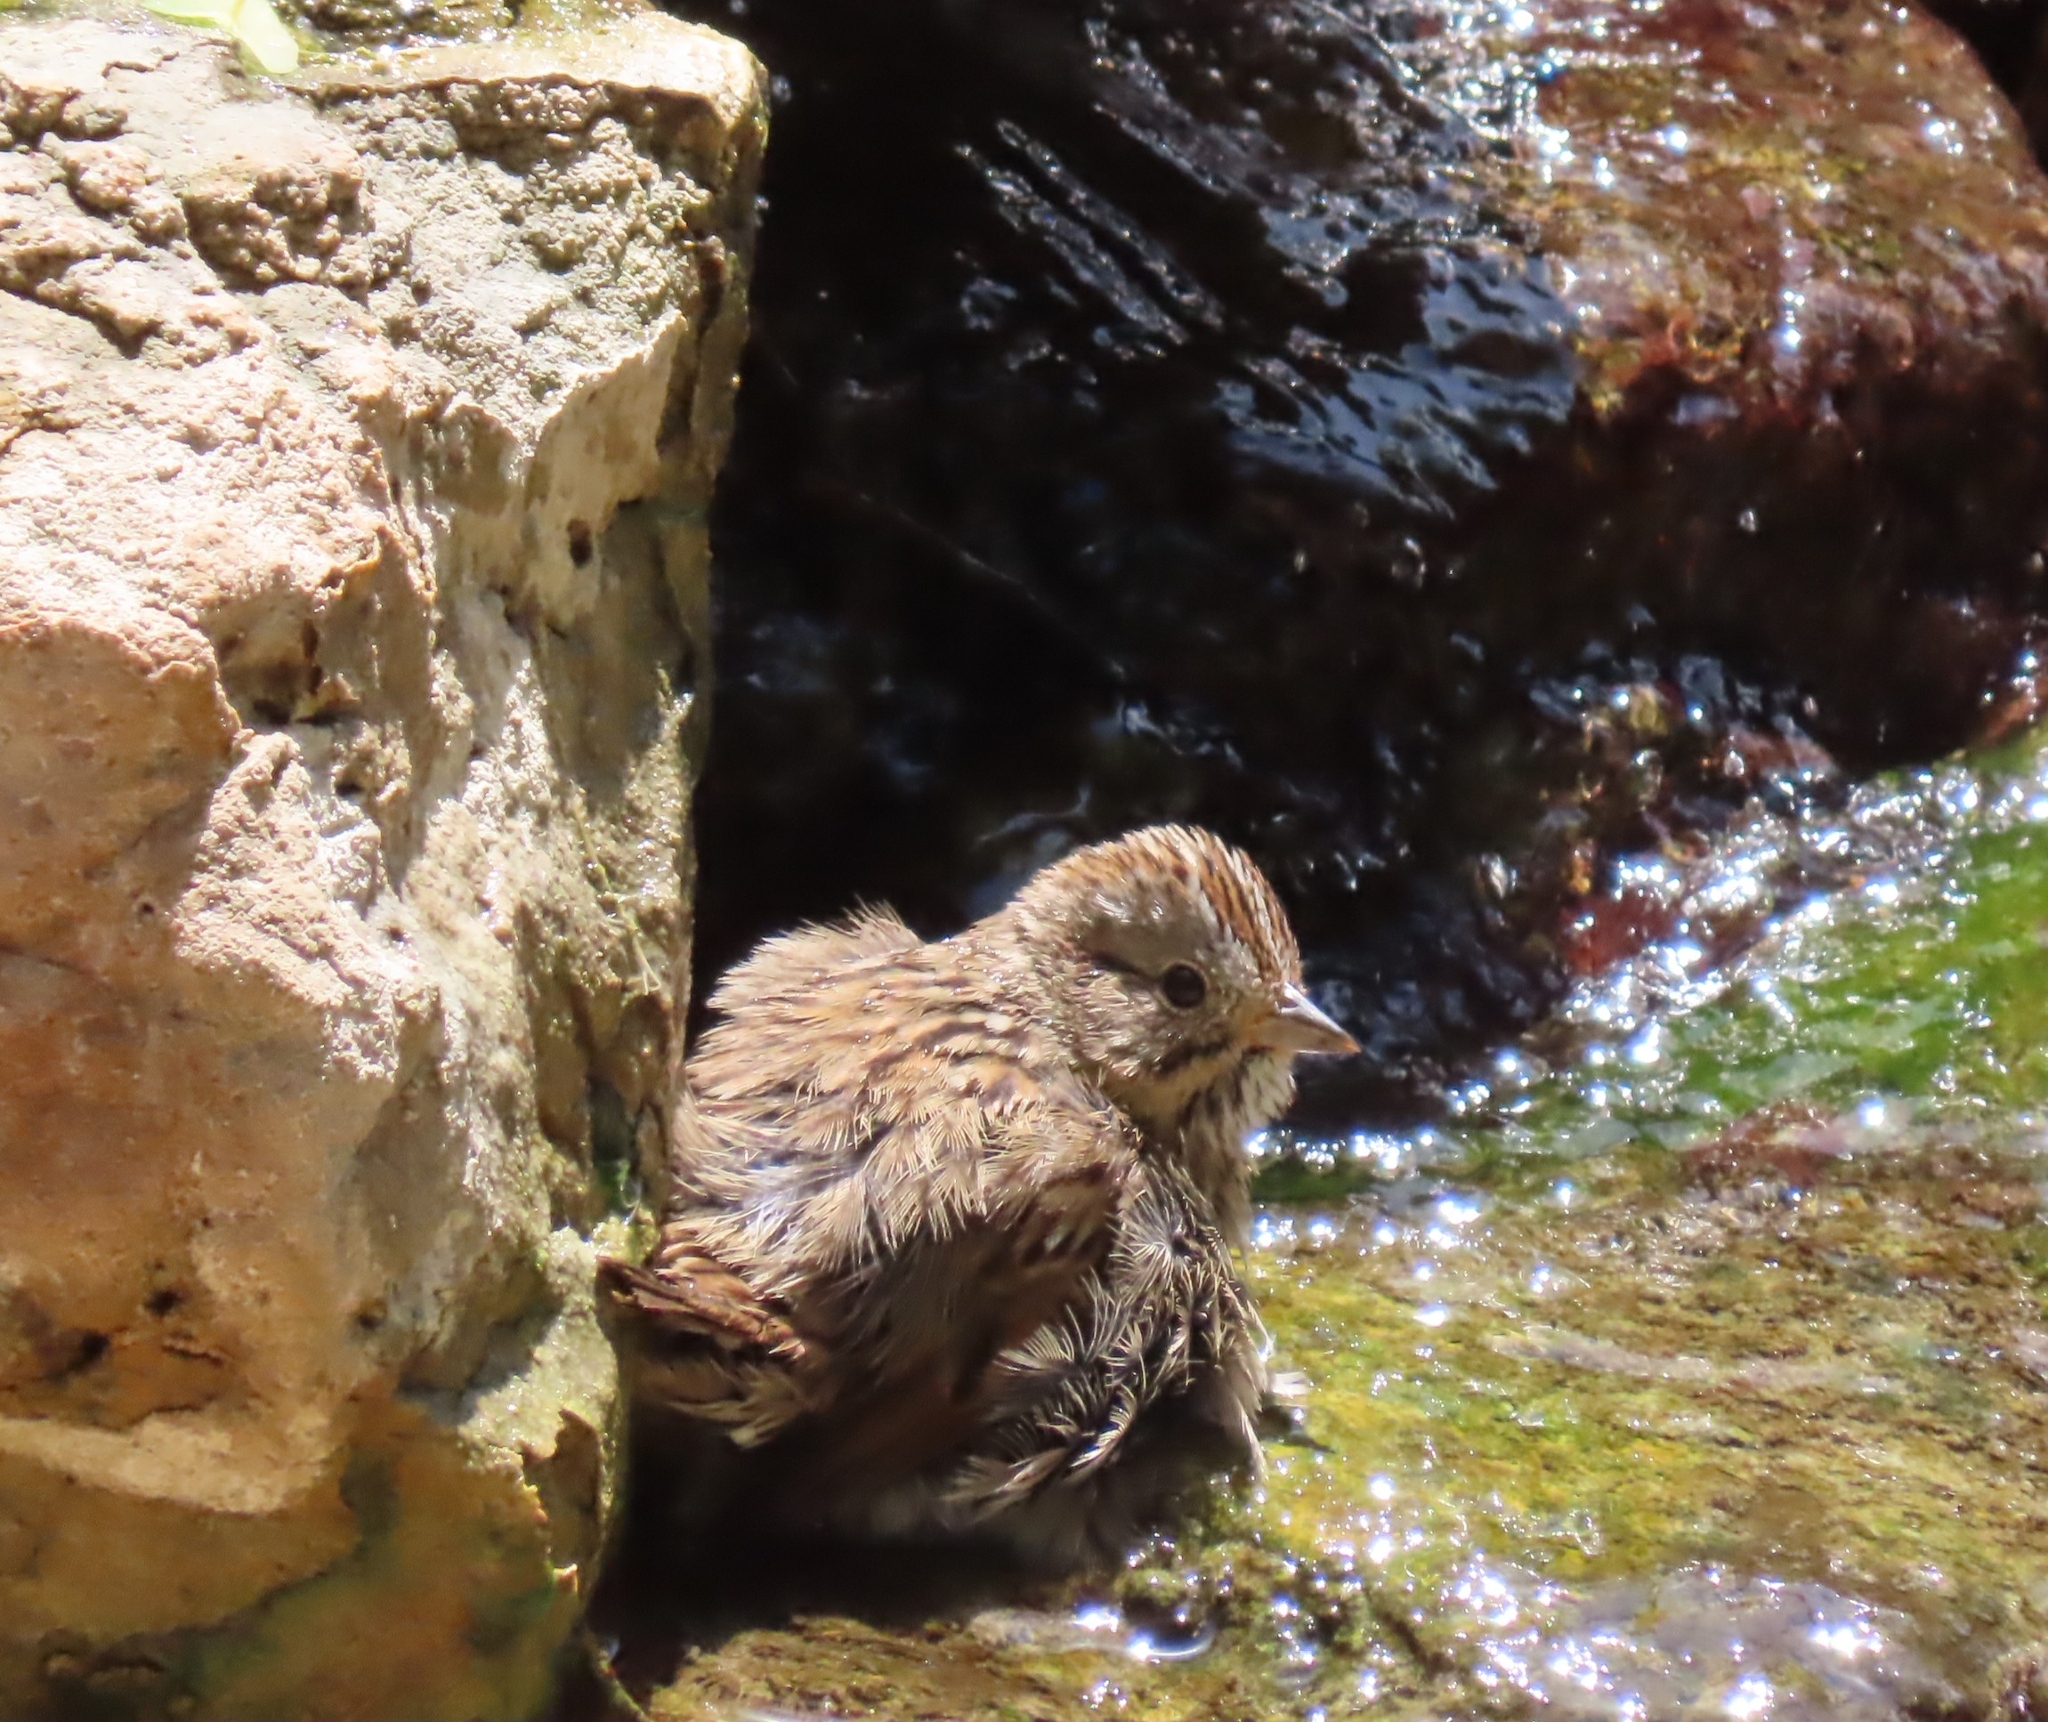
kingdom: Animalia
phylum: Chordata
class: Aves
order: Passeriformes
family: Passerellidae
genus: Melospiza
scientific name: Melospiza lincolnii
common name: Lincoln's sparrow
